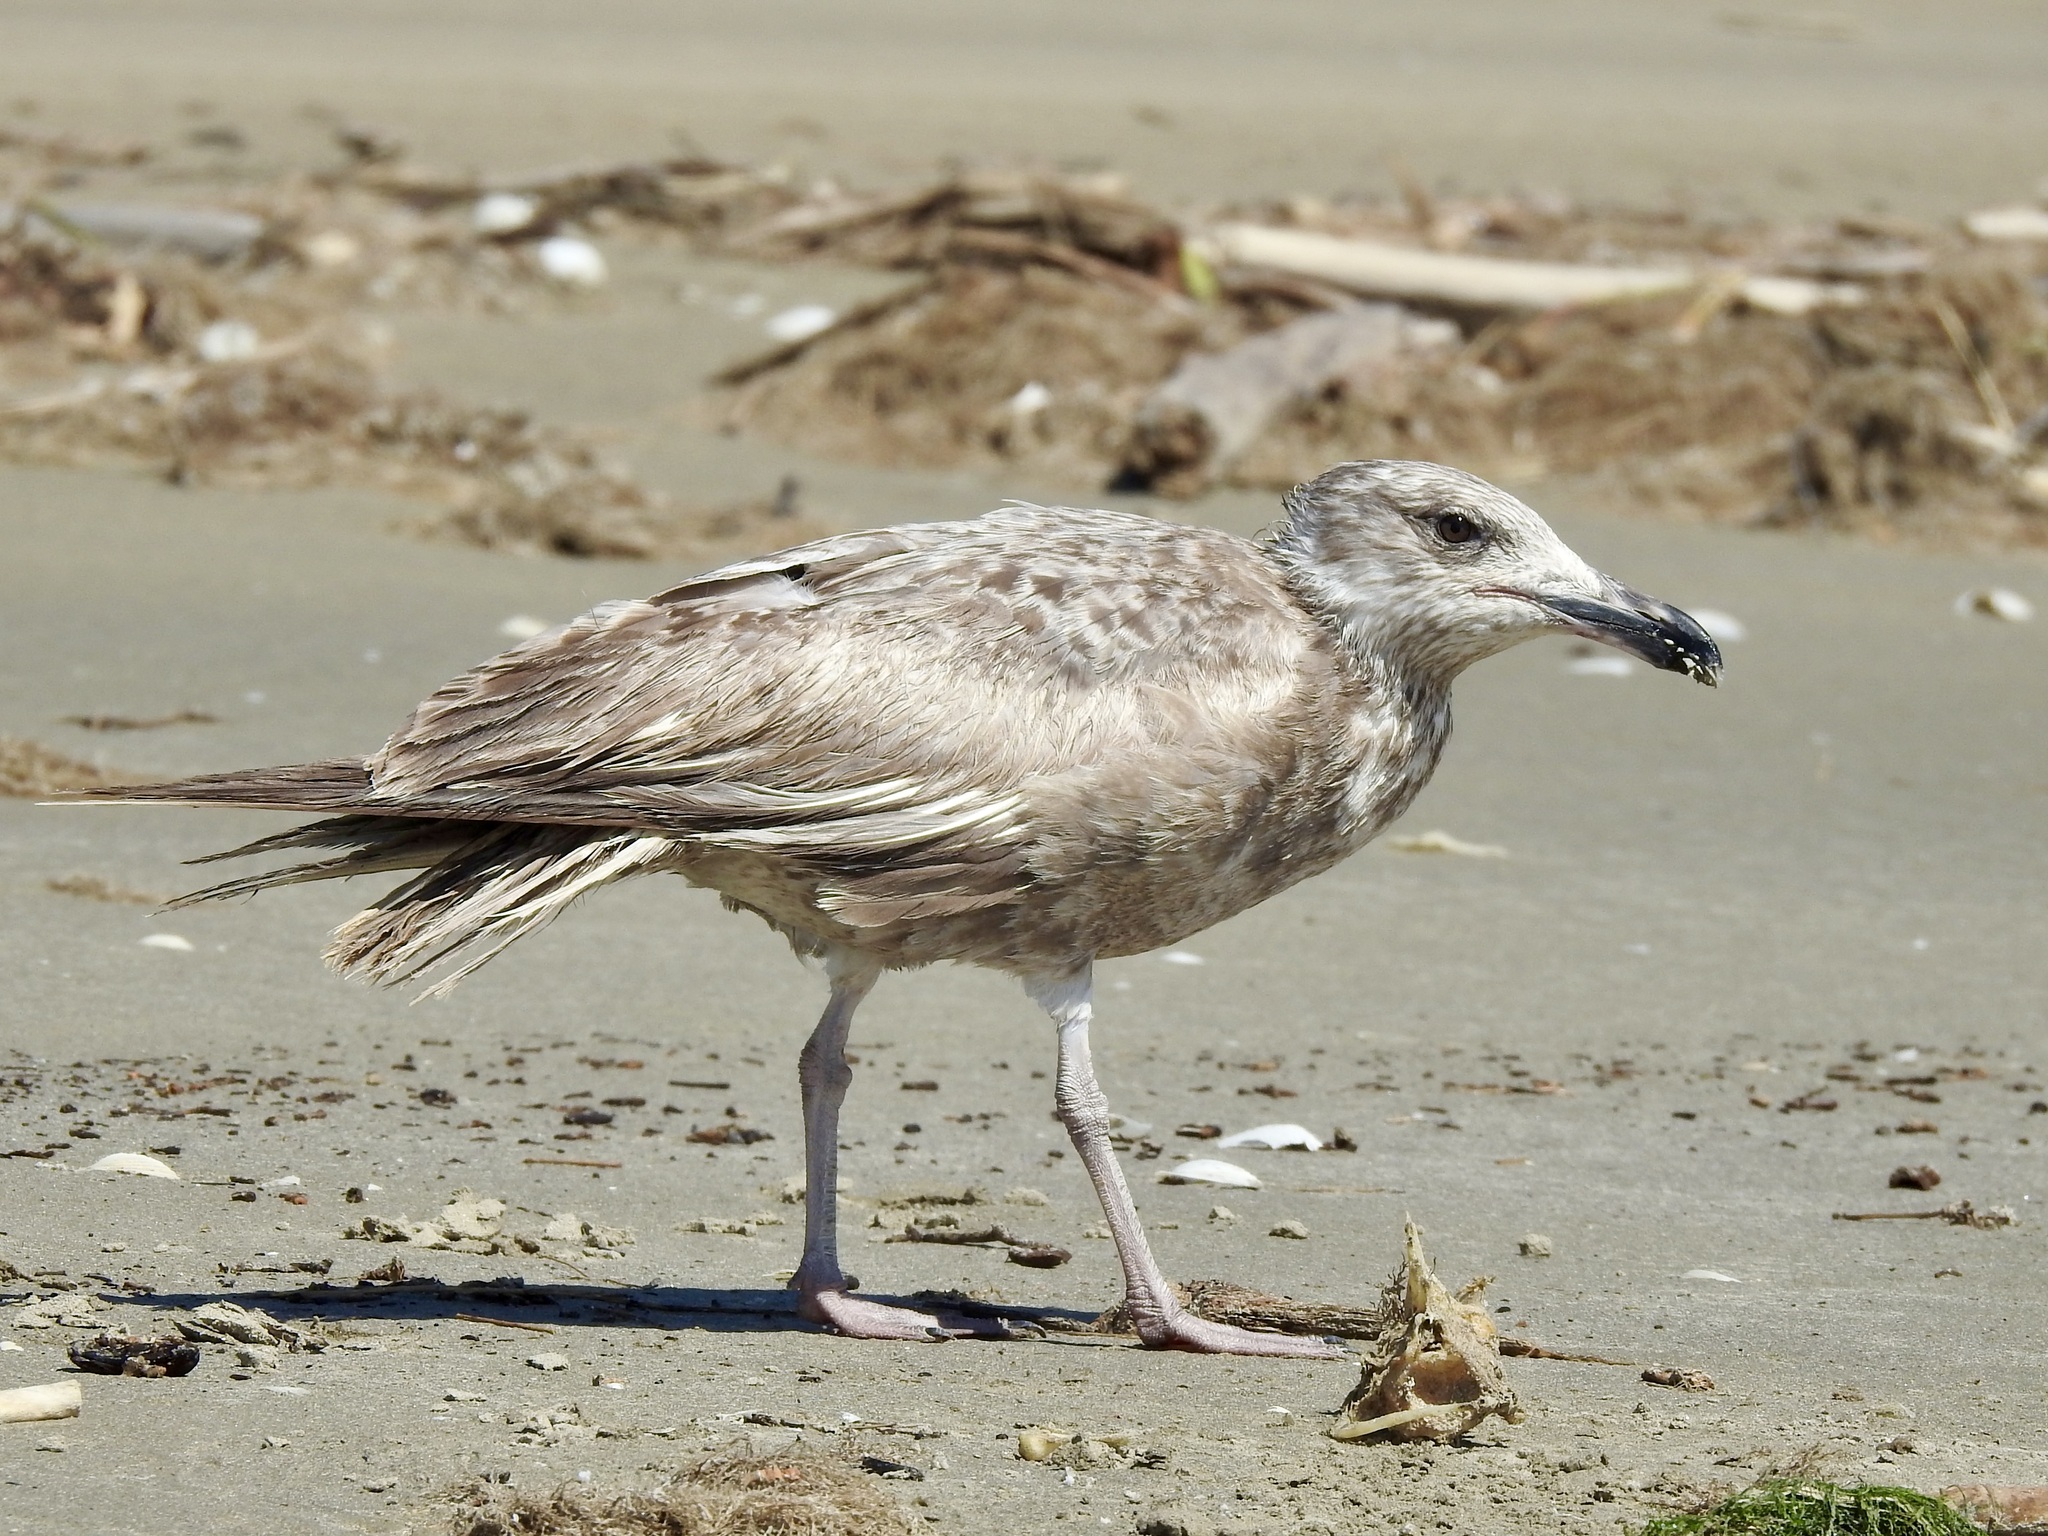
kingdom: Animalia
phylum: Chordata
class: Aves
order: Charadriiformes
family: Laridae
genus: Larus
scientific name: Larus argentatus
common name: Herring gull
